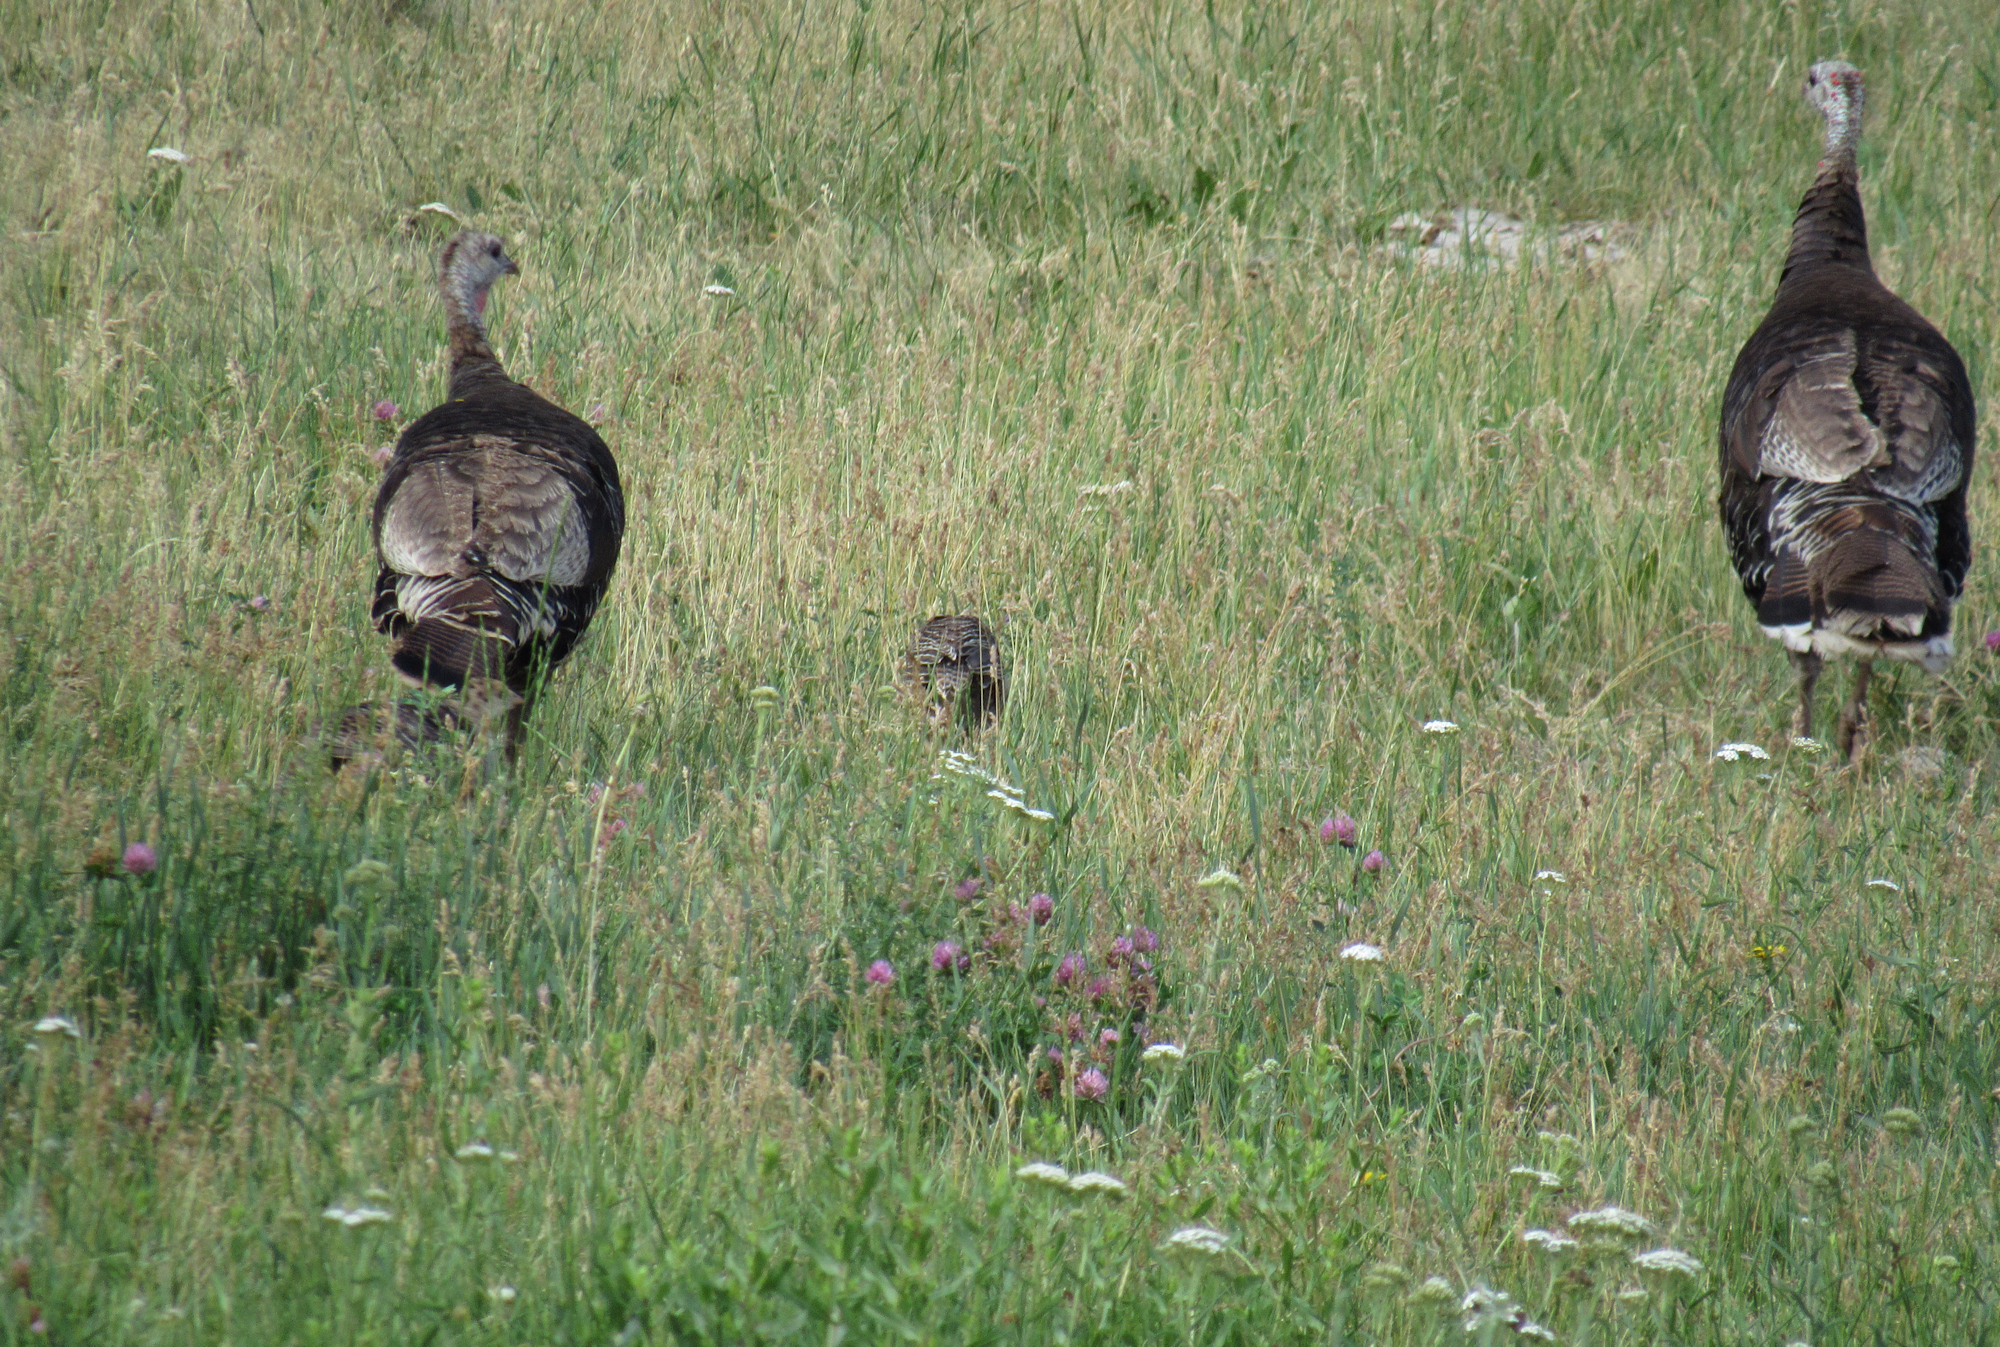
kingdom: Animalia
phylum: Chordata
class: Aves
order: Galliformes
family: Phasianidae
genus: Meleagris
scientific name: Meleagris gallopavo
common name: Wild turkey
